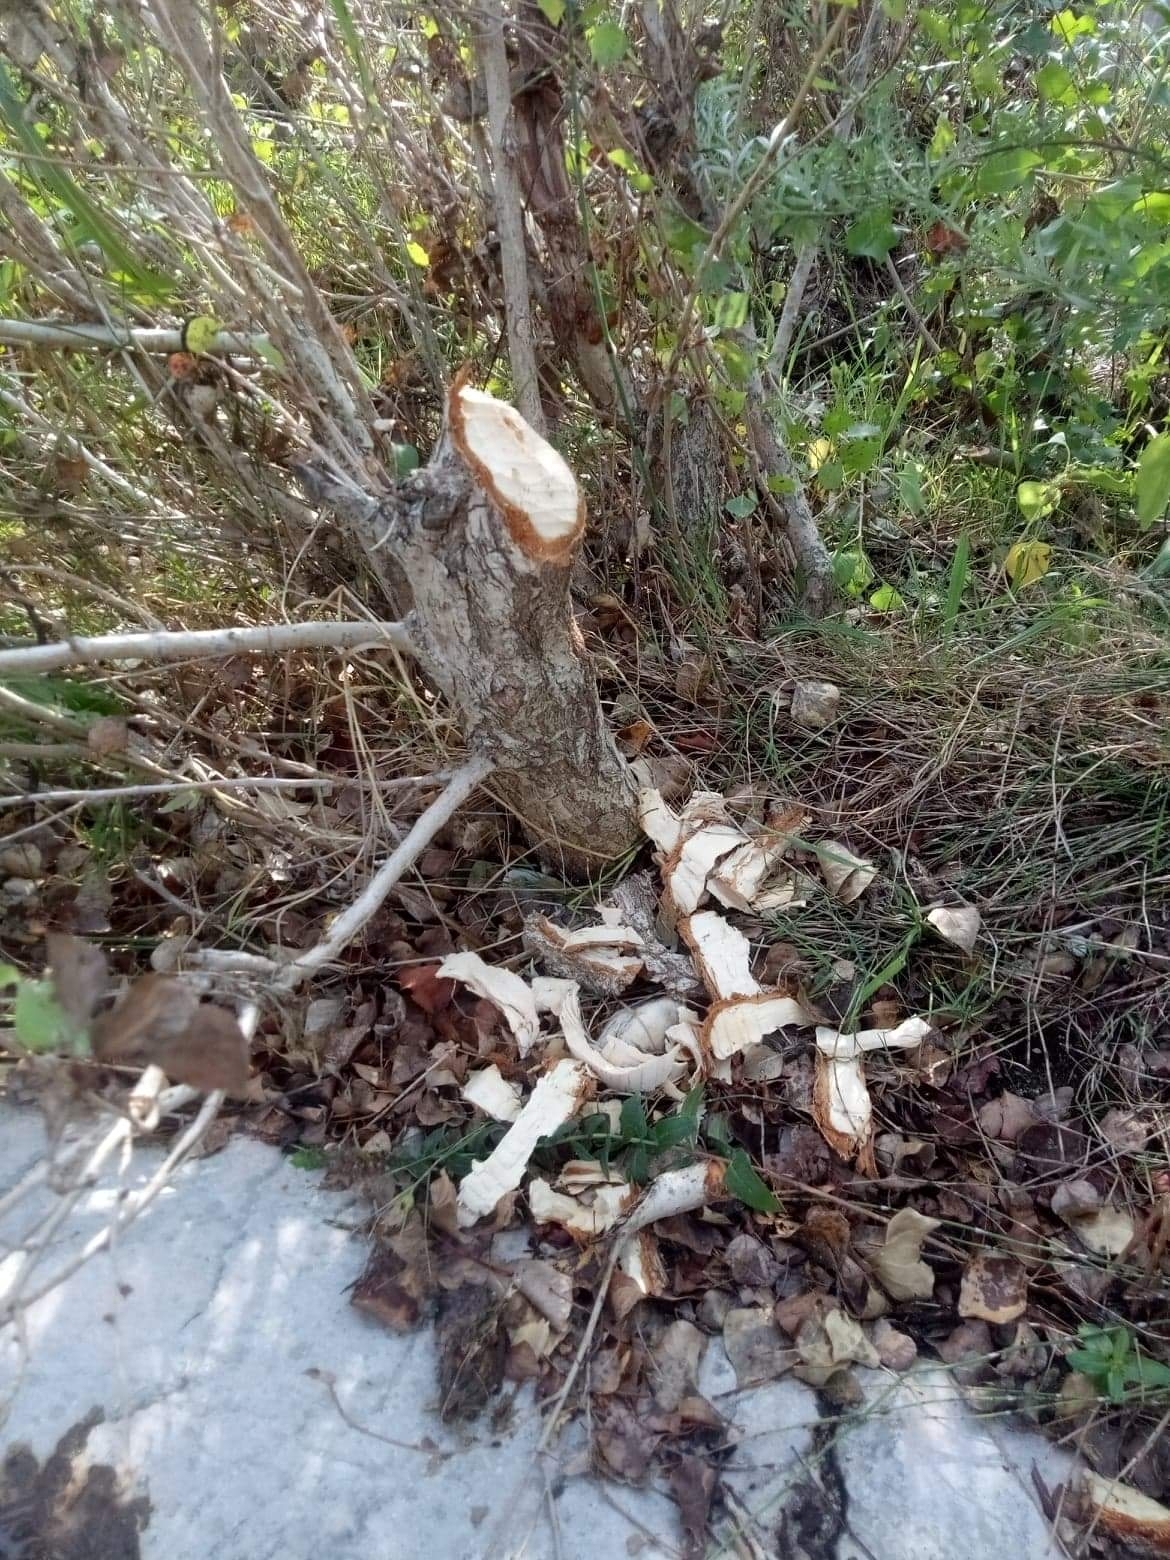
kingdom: Animalia
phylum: Chordata
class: Mammalia
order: Rodentia
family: Castoridae
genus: Castor
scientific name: Castor fiber
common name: Eurasian beaver
